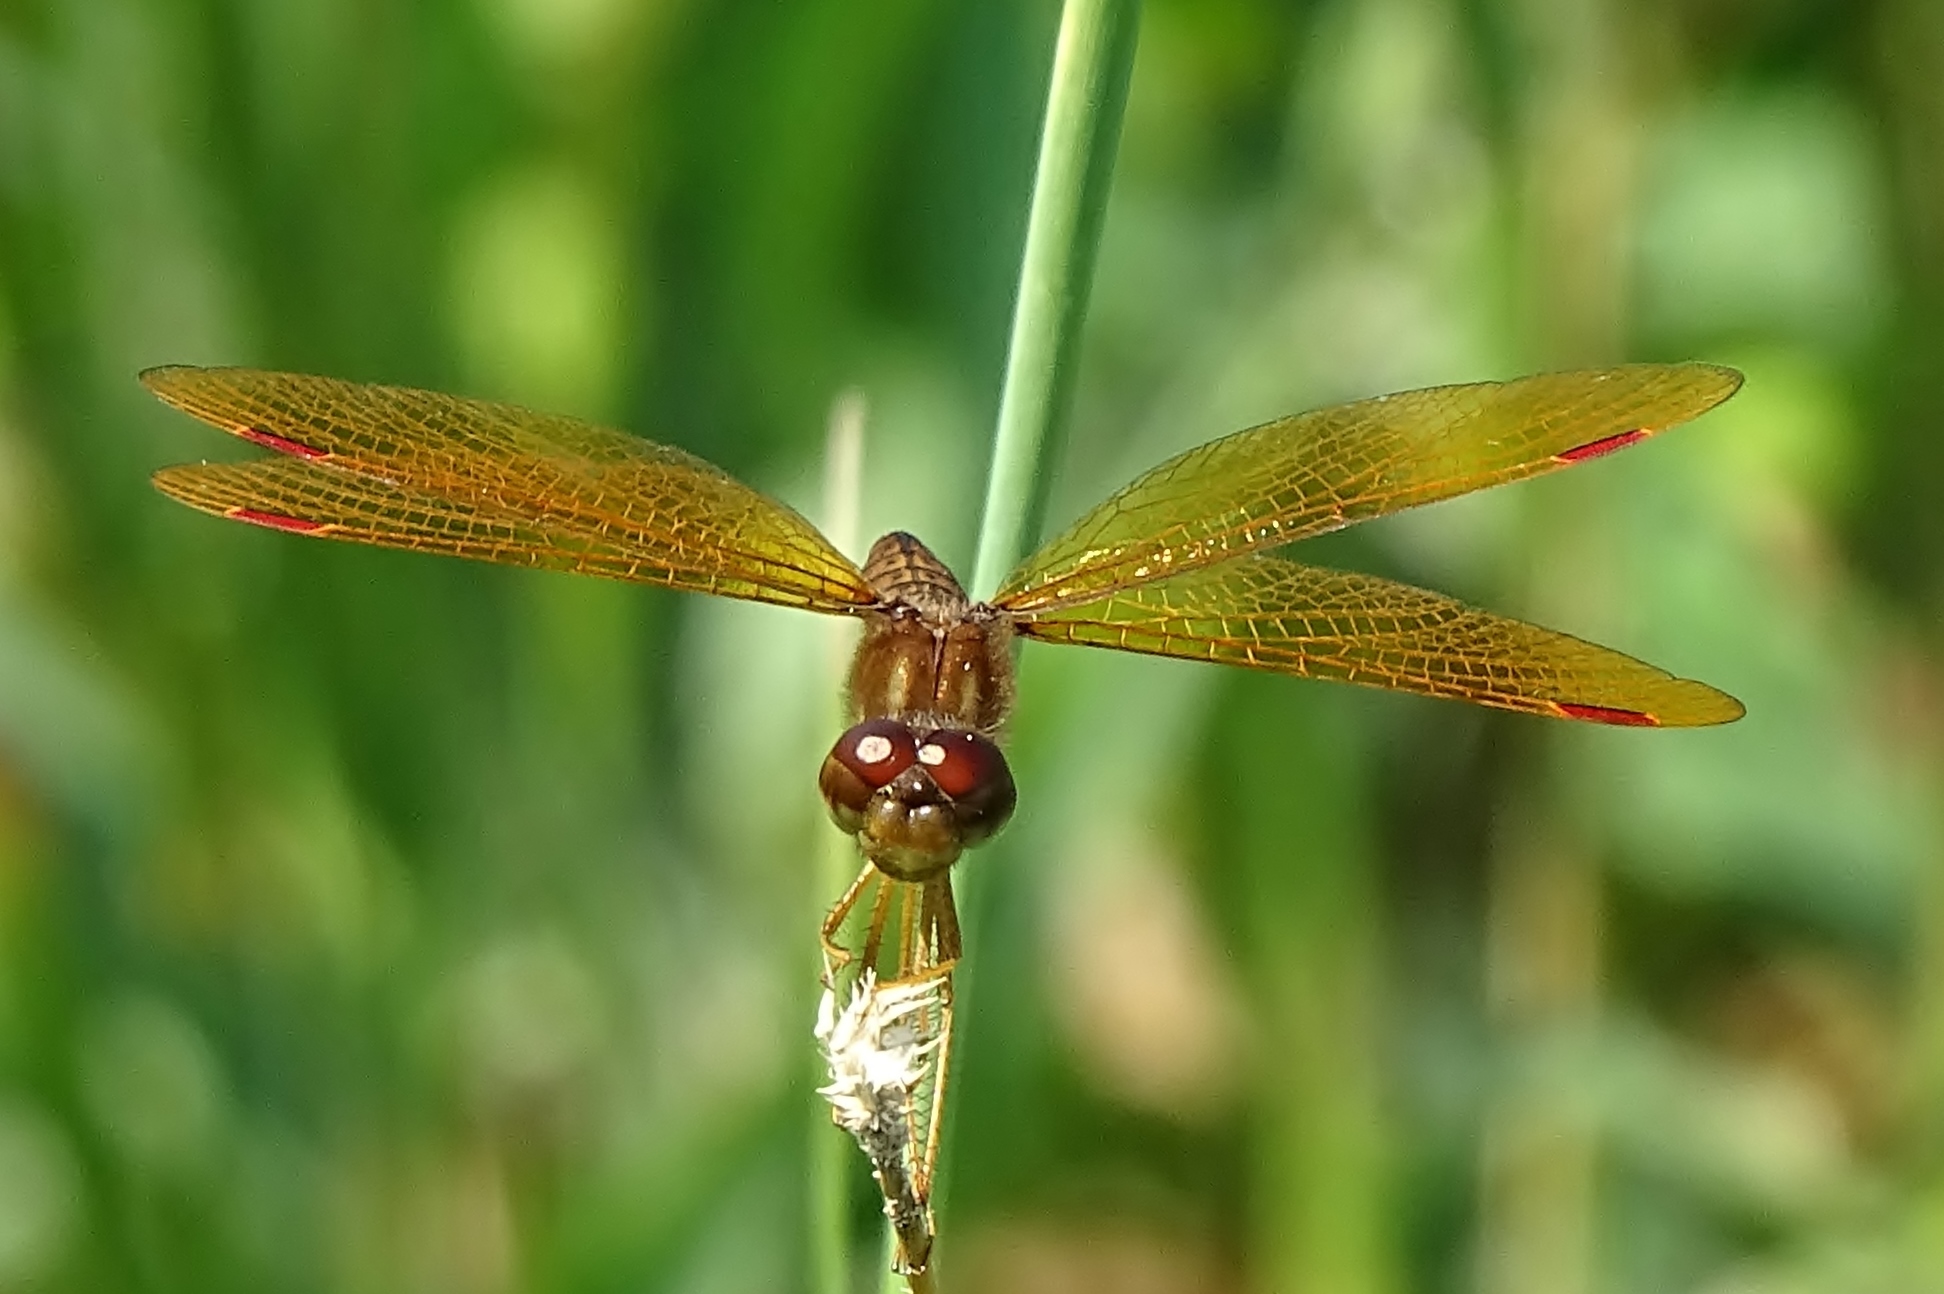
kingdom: Animalia
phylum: Arthropoda
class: Insecta
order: Odonata
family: Libellulidae
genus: Perithemis
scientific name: Perithemis tenera
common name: Eastern amberwing
